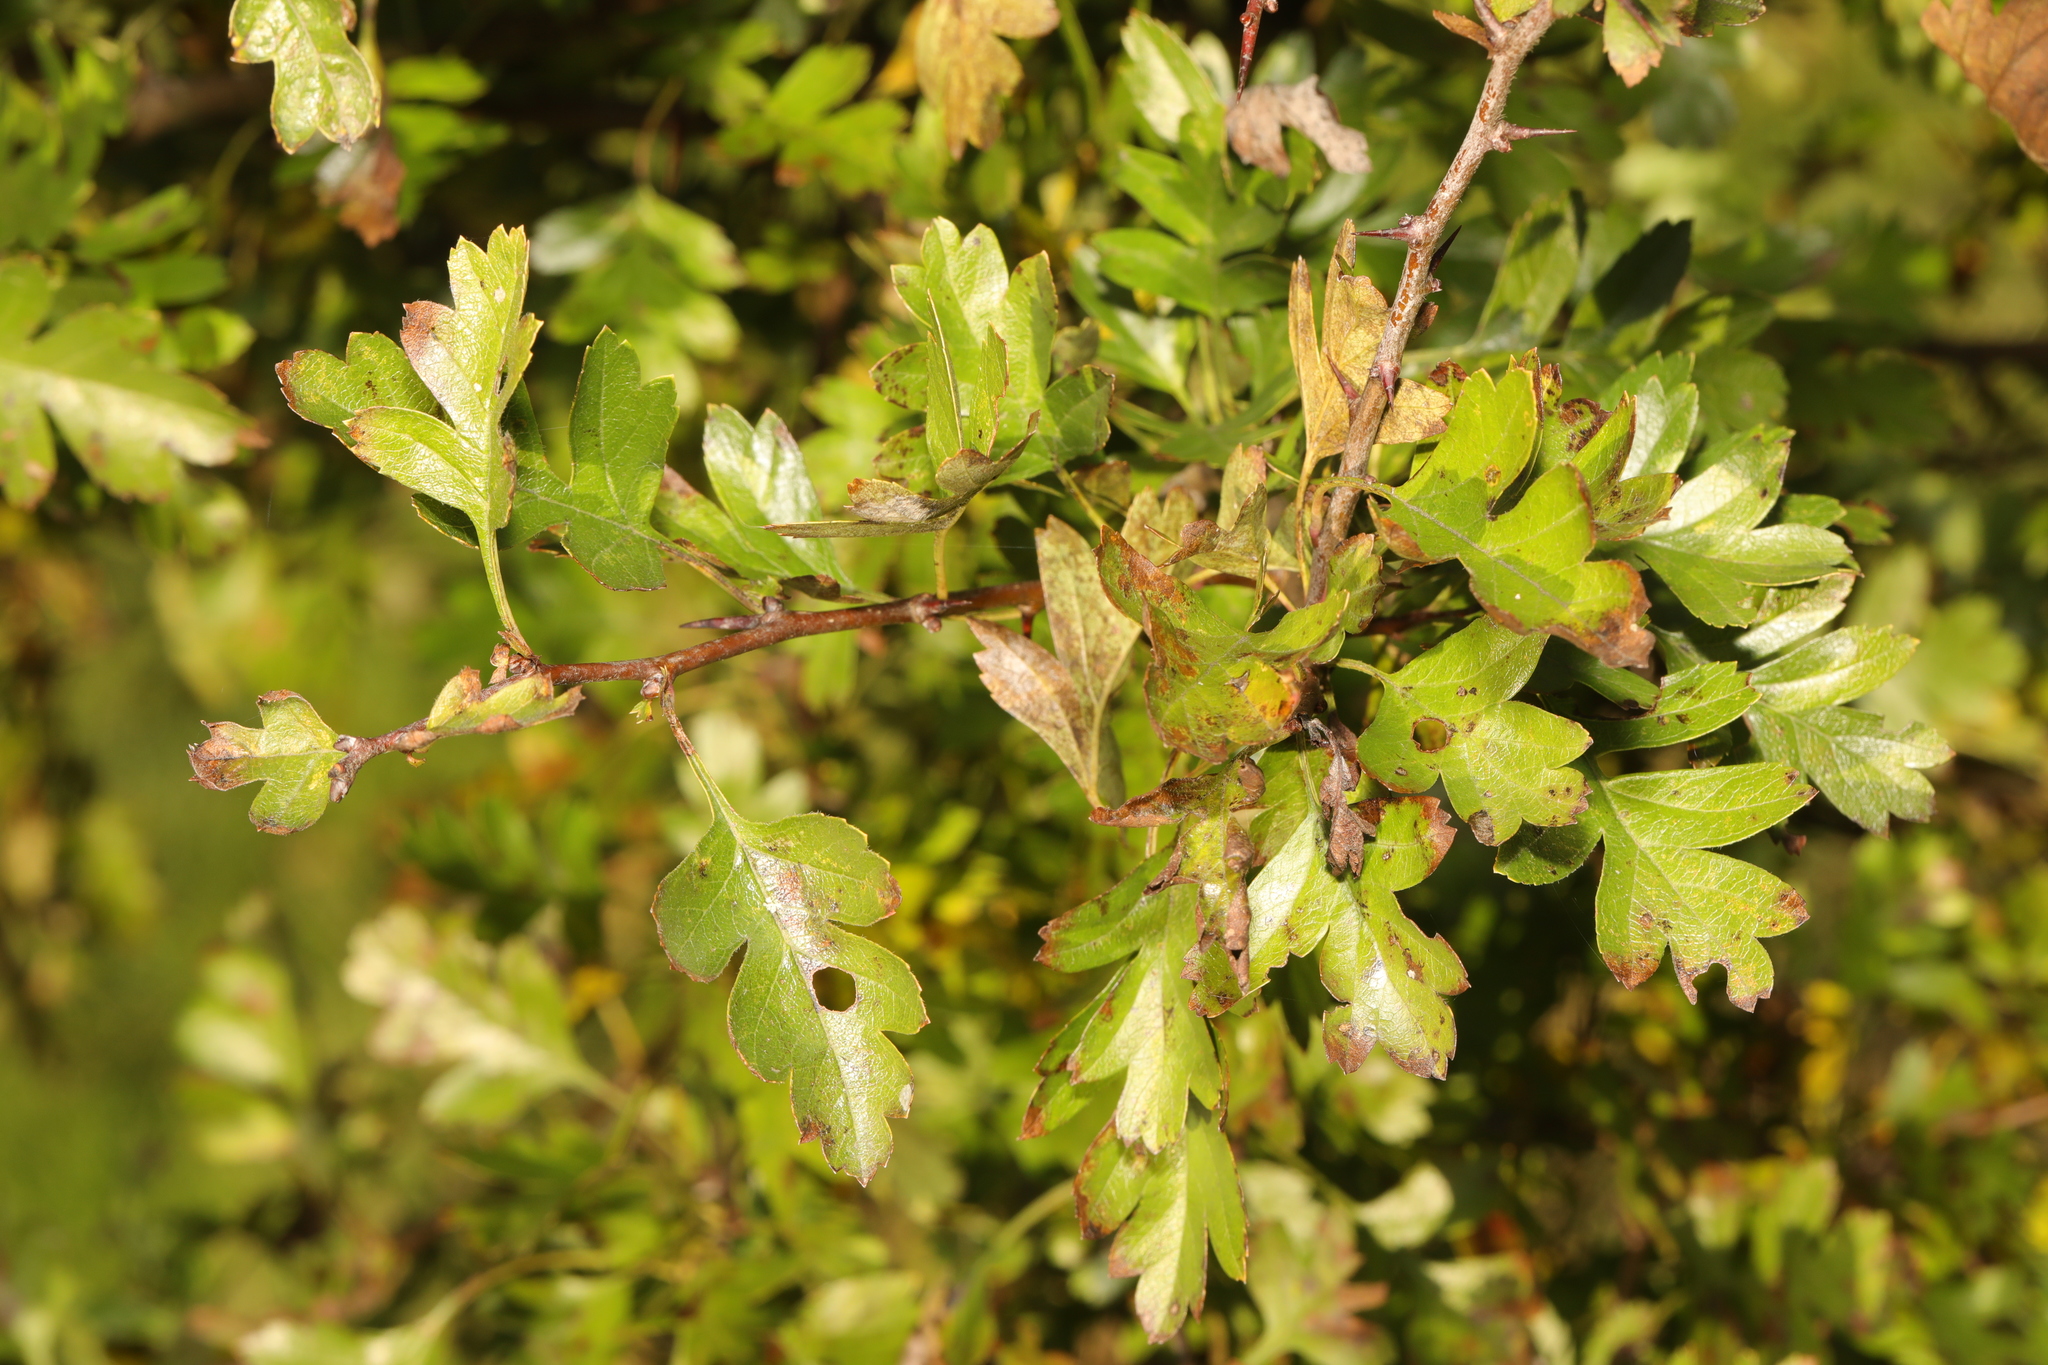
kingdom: Plantae
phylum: Tracheophyta
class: Magnoliopsida
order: Rosales
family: Rosaceae
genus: Crataegus
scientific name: Crataegus monogyna
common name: Hawthorn
